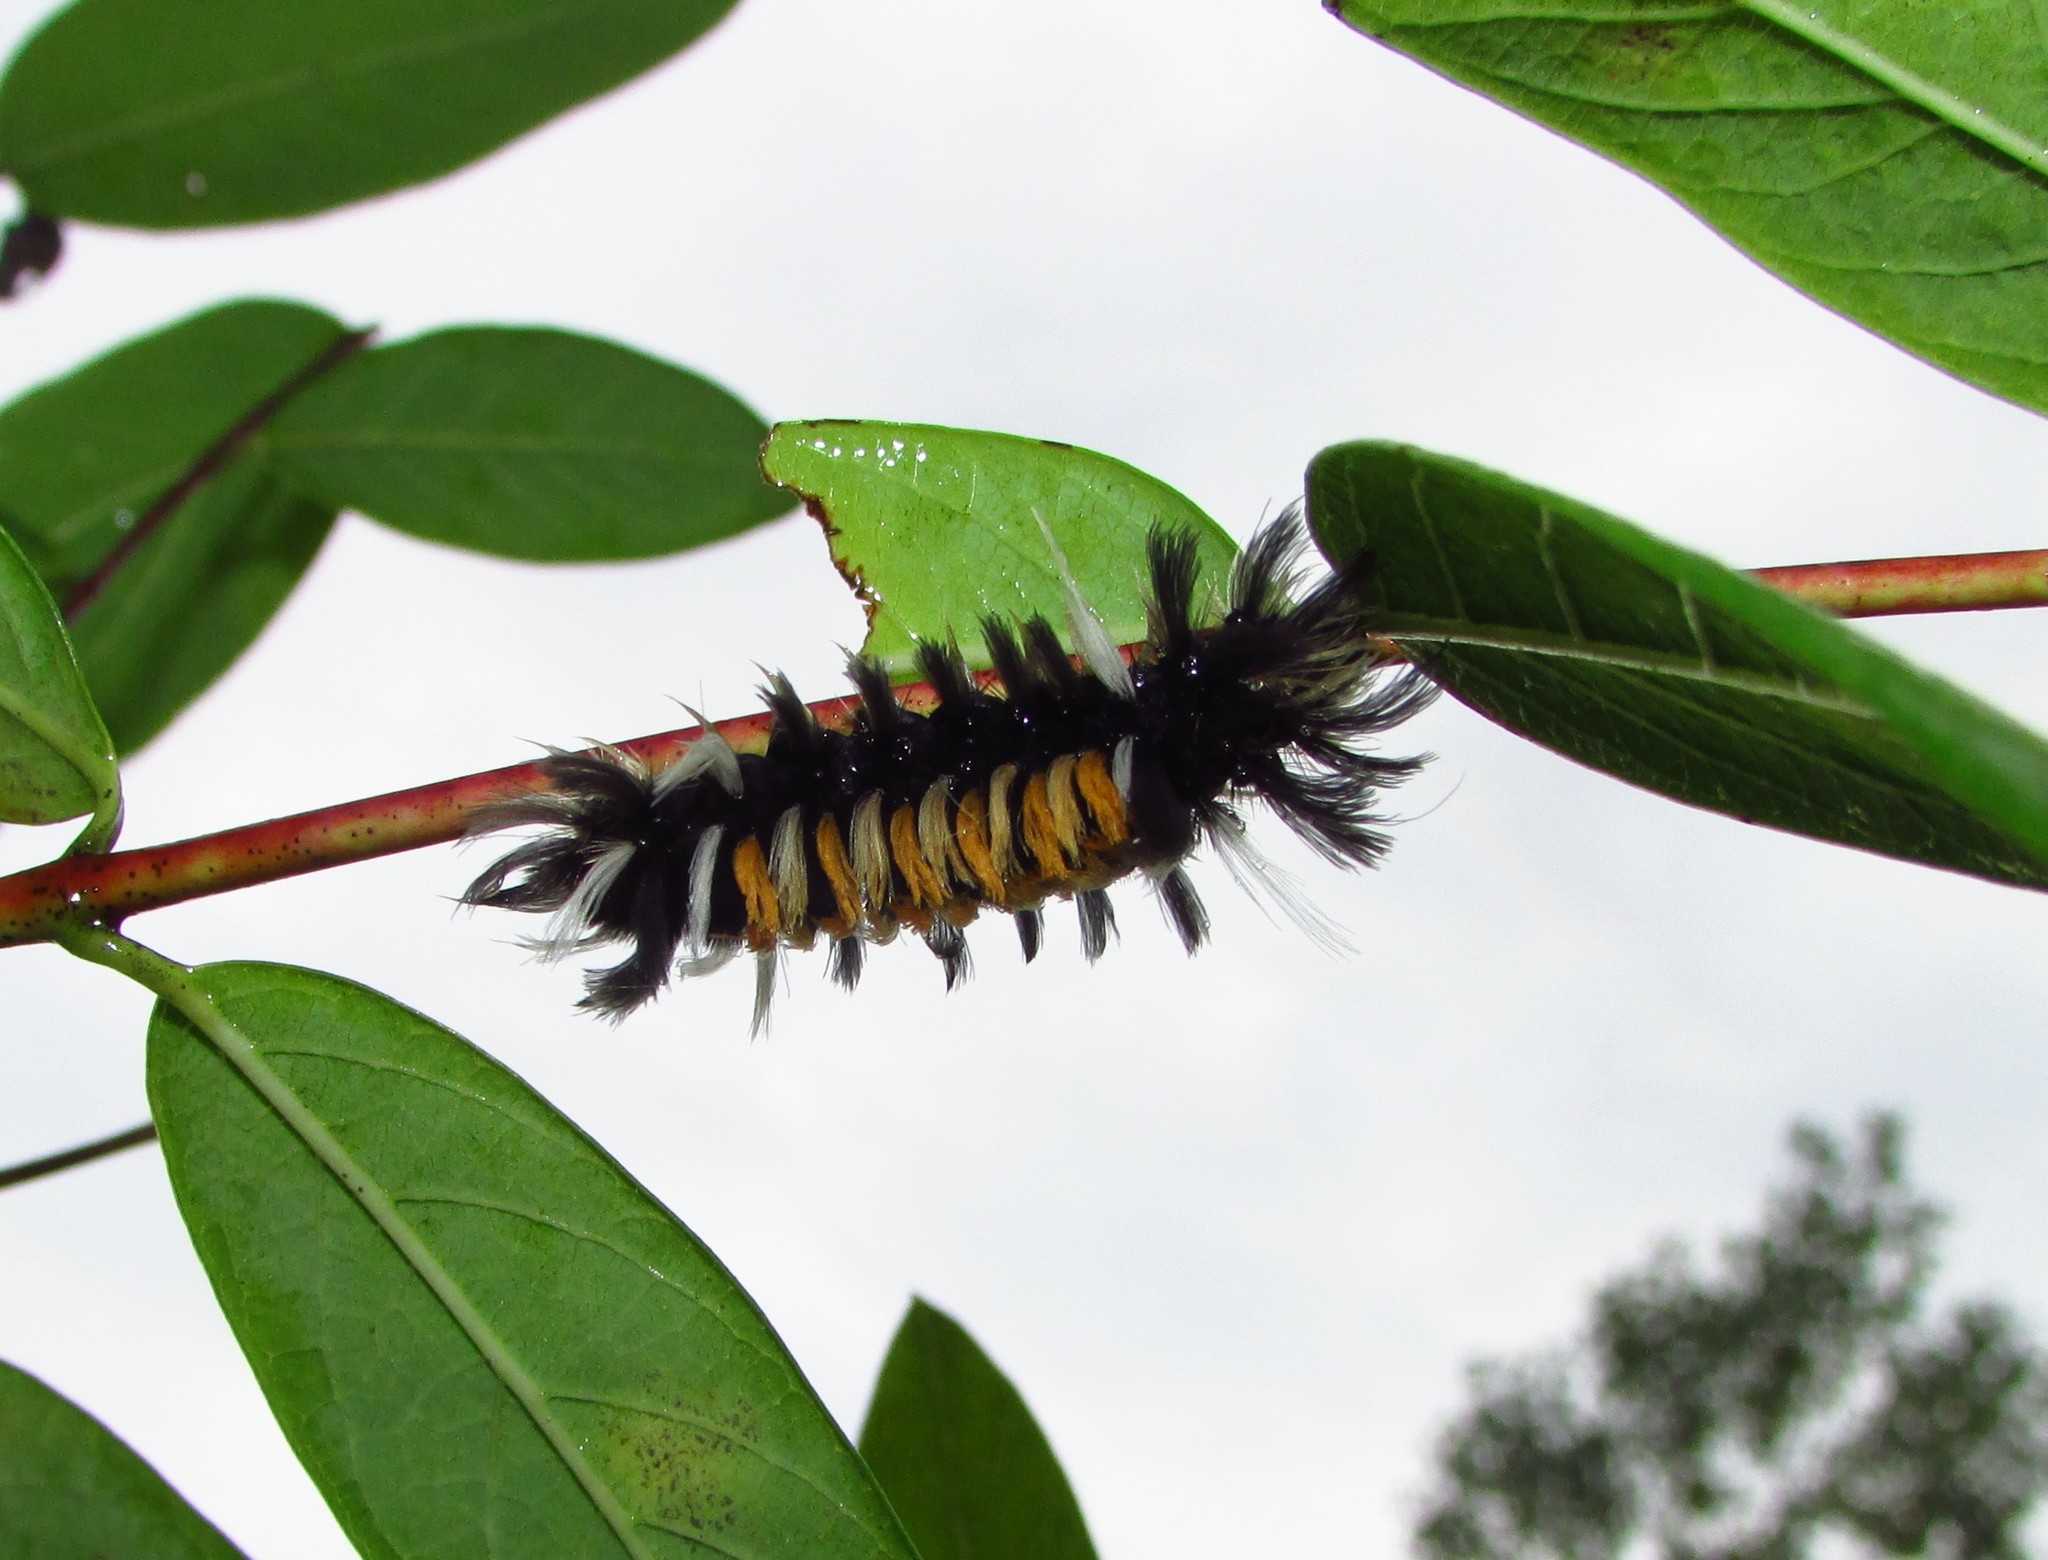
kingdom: Animalia
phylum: Arthropoda
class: Insecta
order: Lepidoptera
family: Erebidae
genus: Euchaetes
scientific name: Euchaetes egle
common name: Milkweed tussock moth
